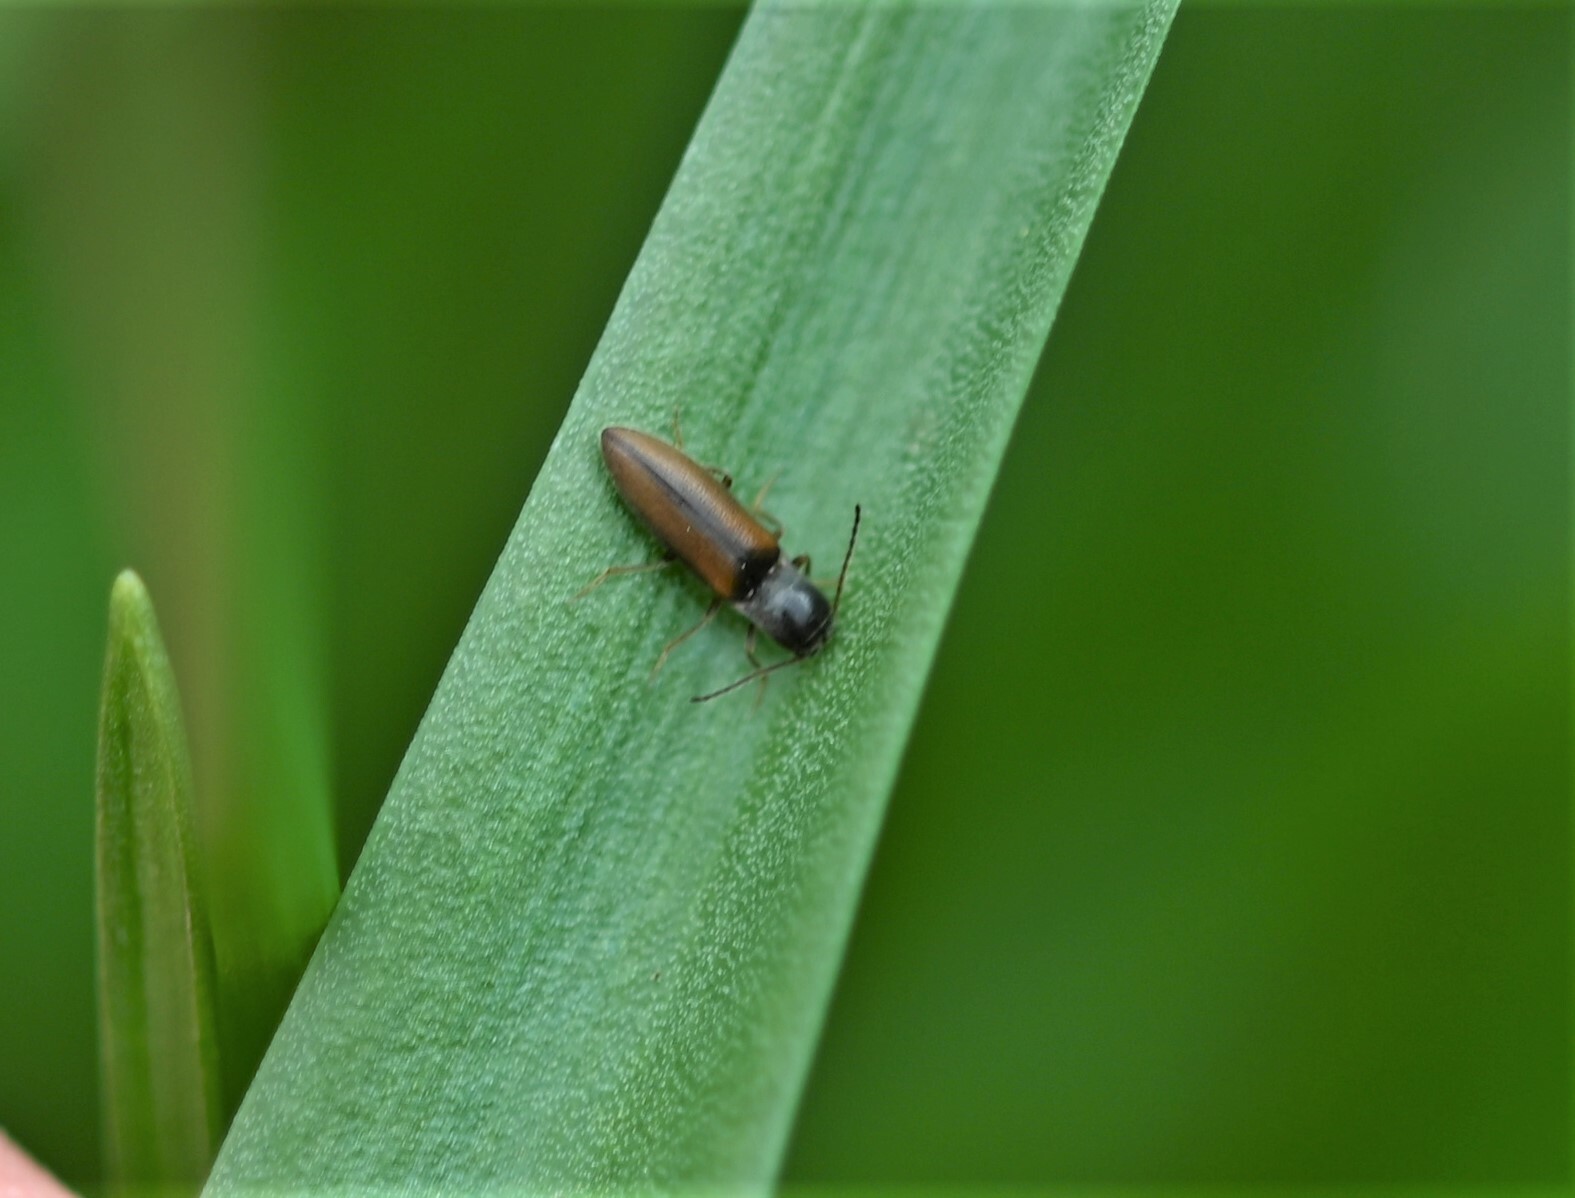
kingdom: Animalia
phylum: Arthropoda
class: Insecta
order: Coleoptera
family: Elateridae
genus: Dalopius
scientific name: Dalopius marginatus
